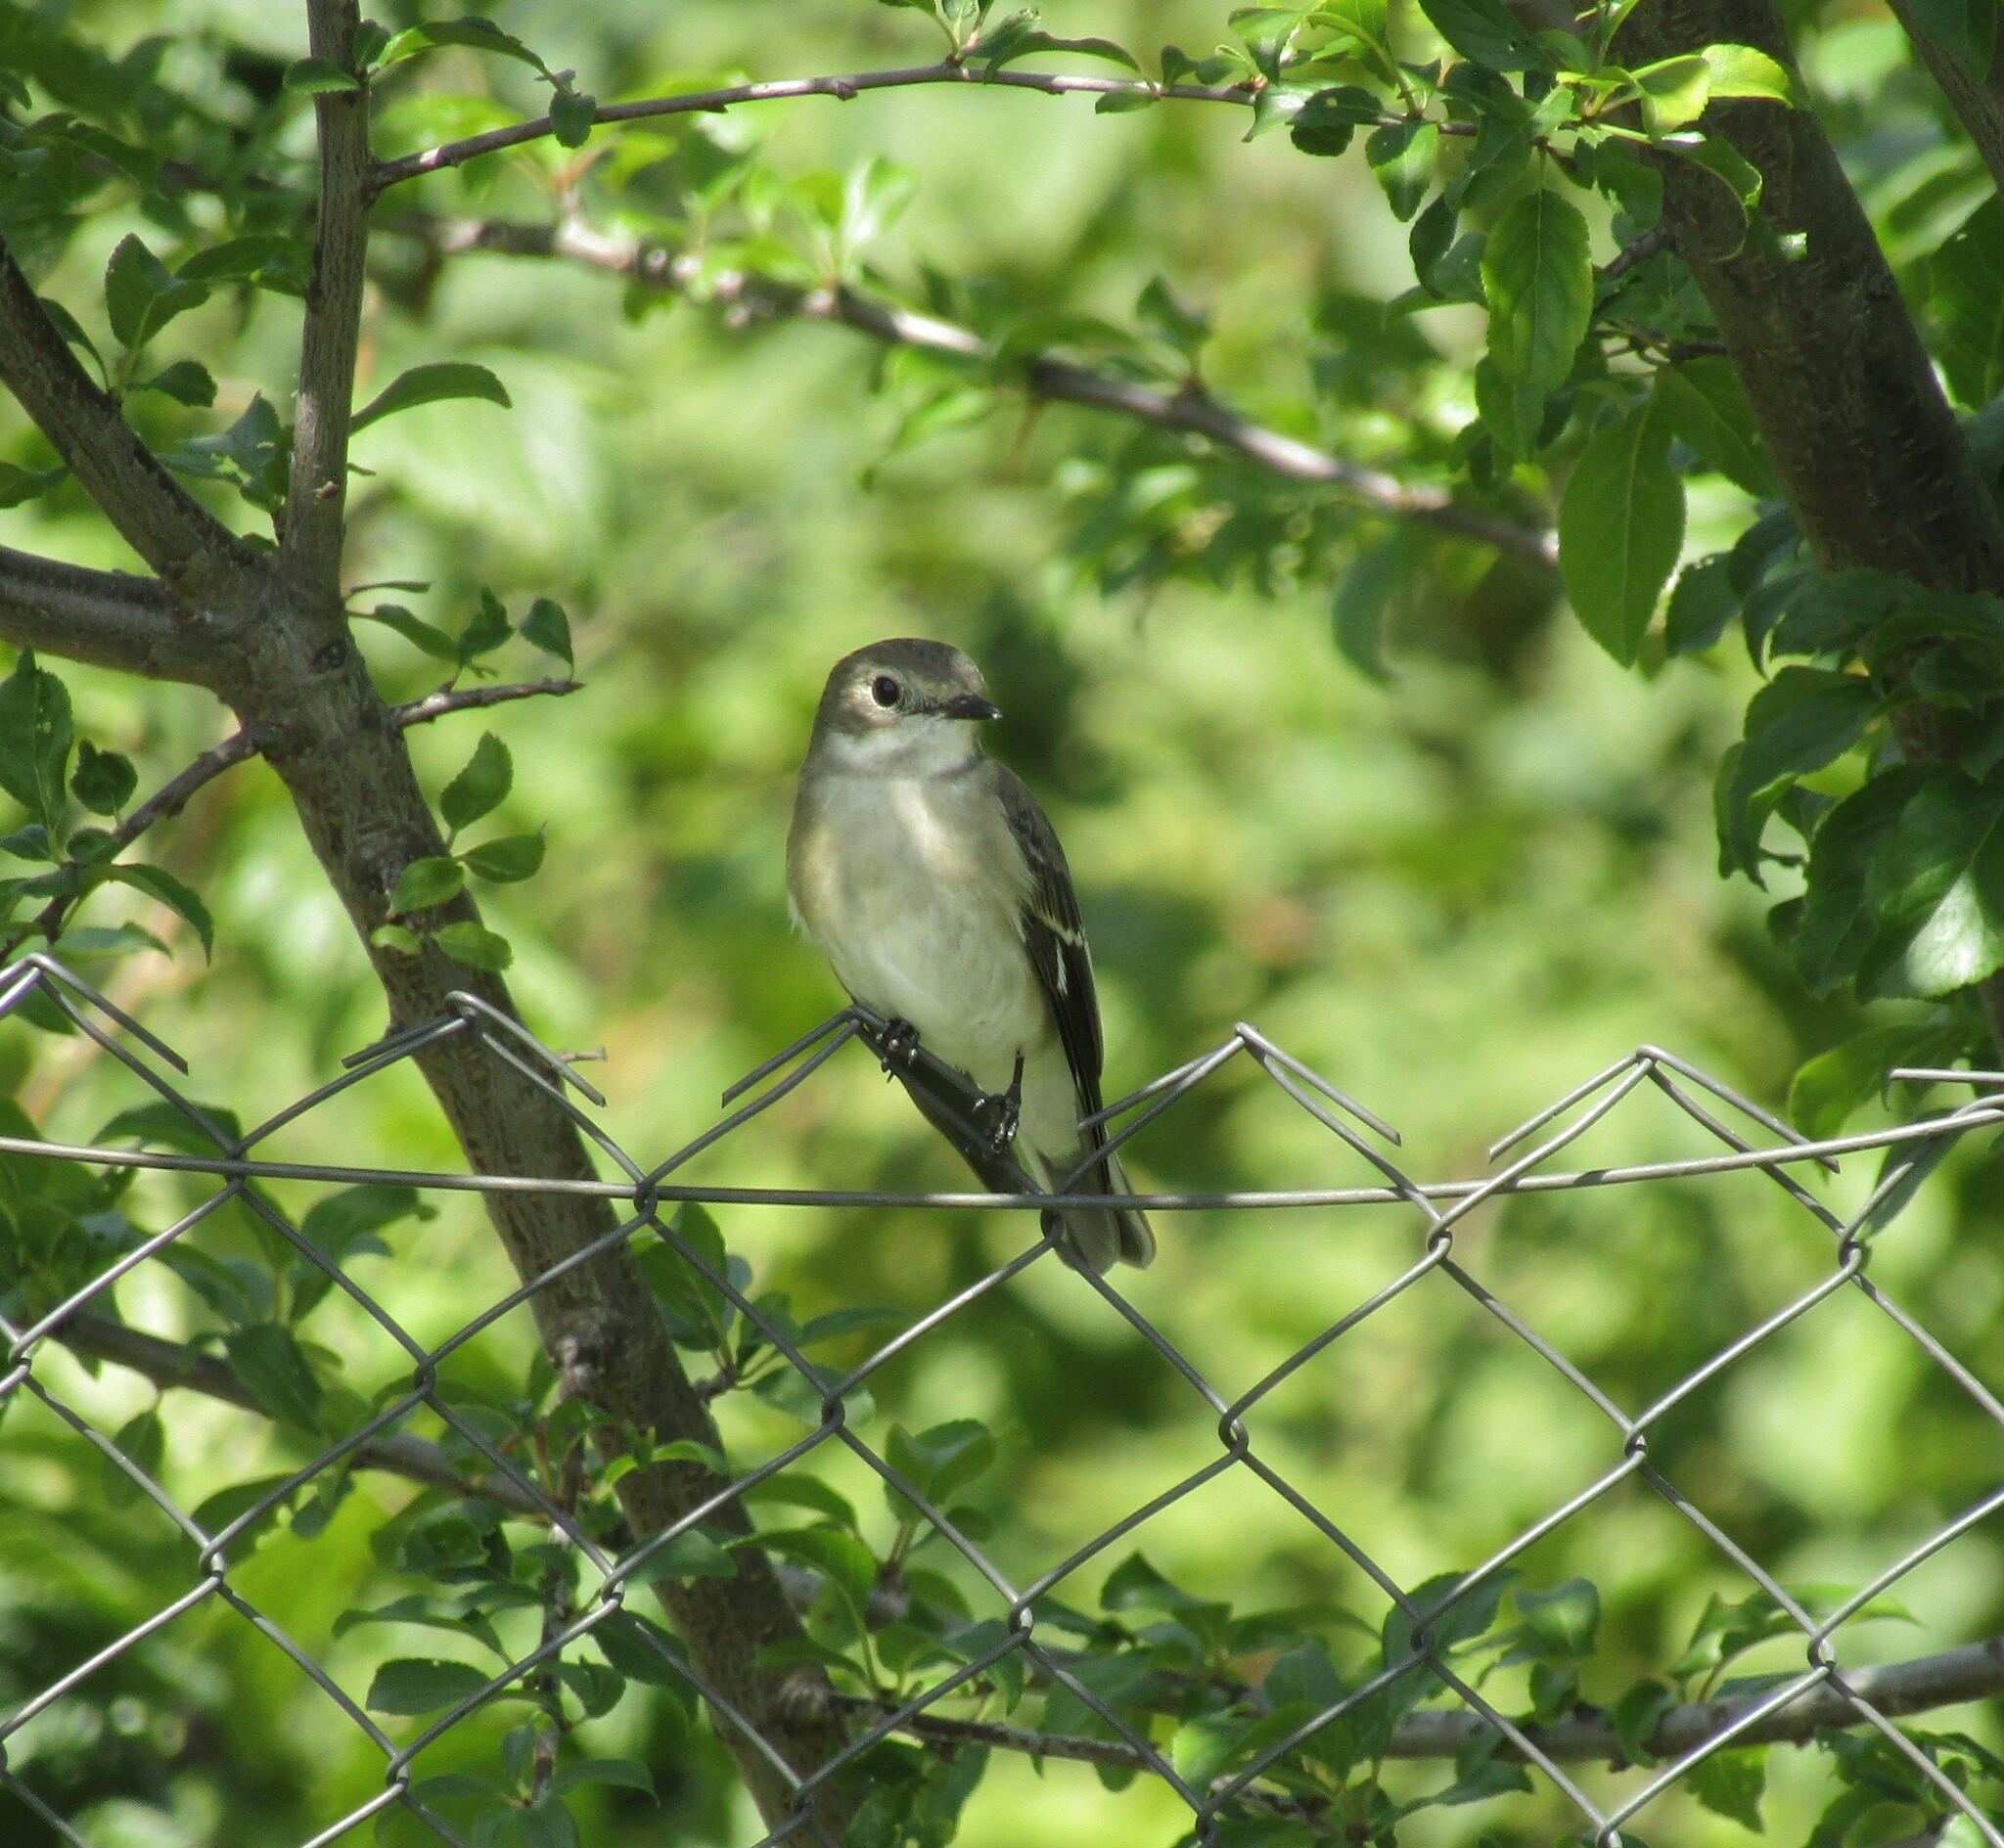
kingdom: Animalia
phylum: Chordata
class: Aves
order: Passeriformes
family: Muscicapidae
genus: Ficedula
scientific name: Ficedula hypoleuca
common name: European pied flycatcher
